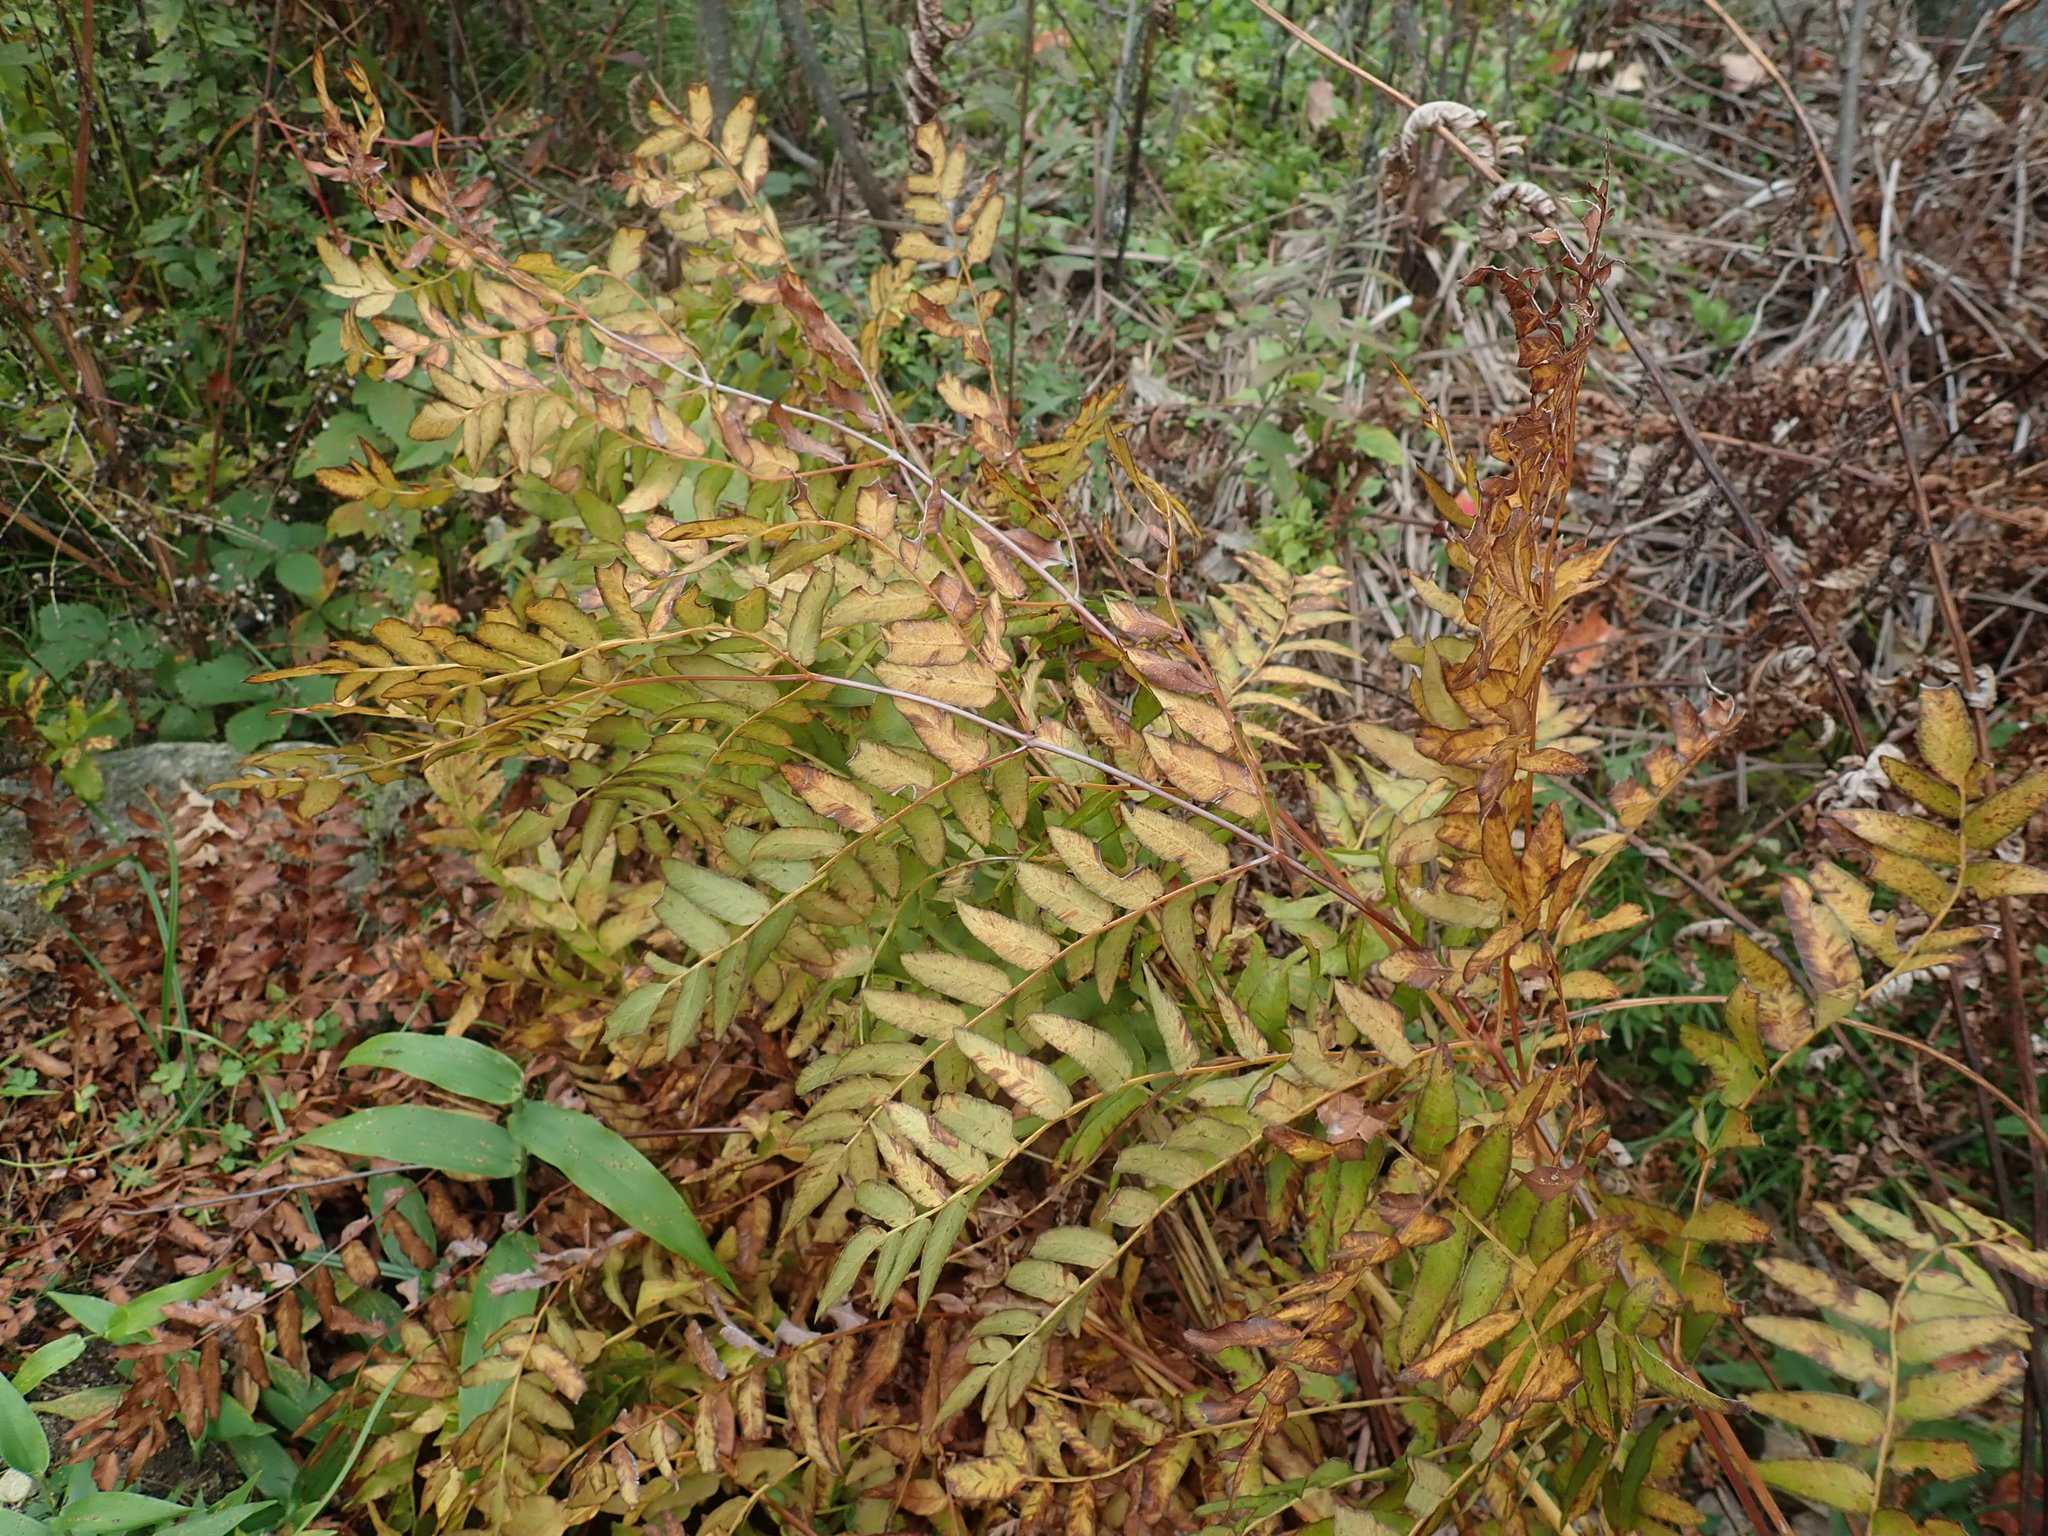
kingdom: Plantae
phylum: Tracheophyta
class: Polypodiopsida
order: Osmundales
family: Osmundaceae
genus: Osmunda
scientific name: Osmunda spectabilis
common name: American royal fern
